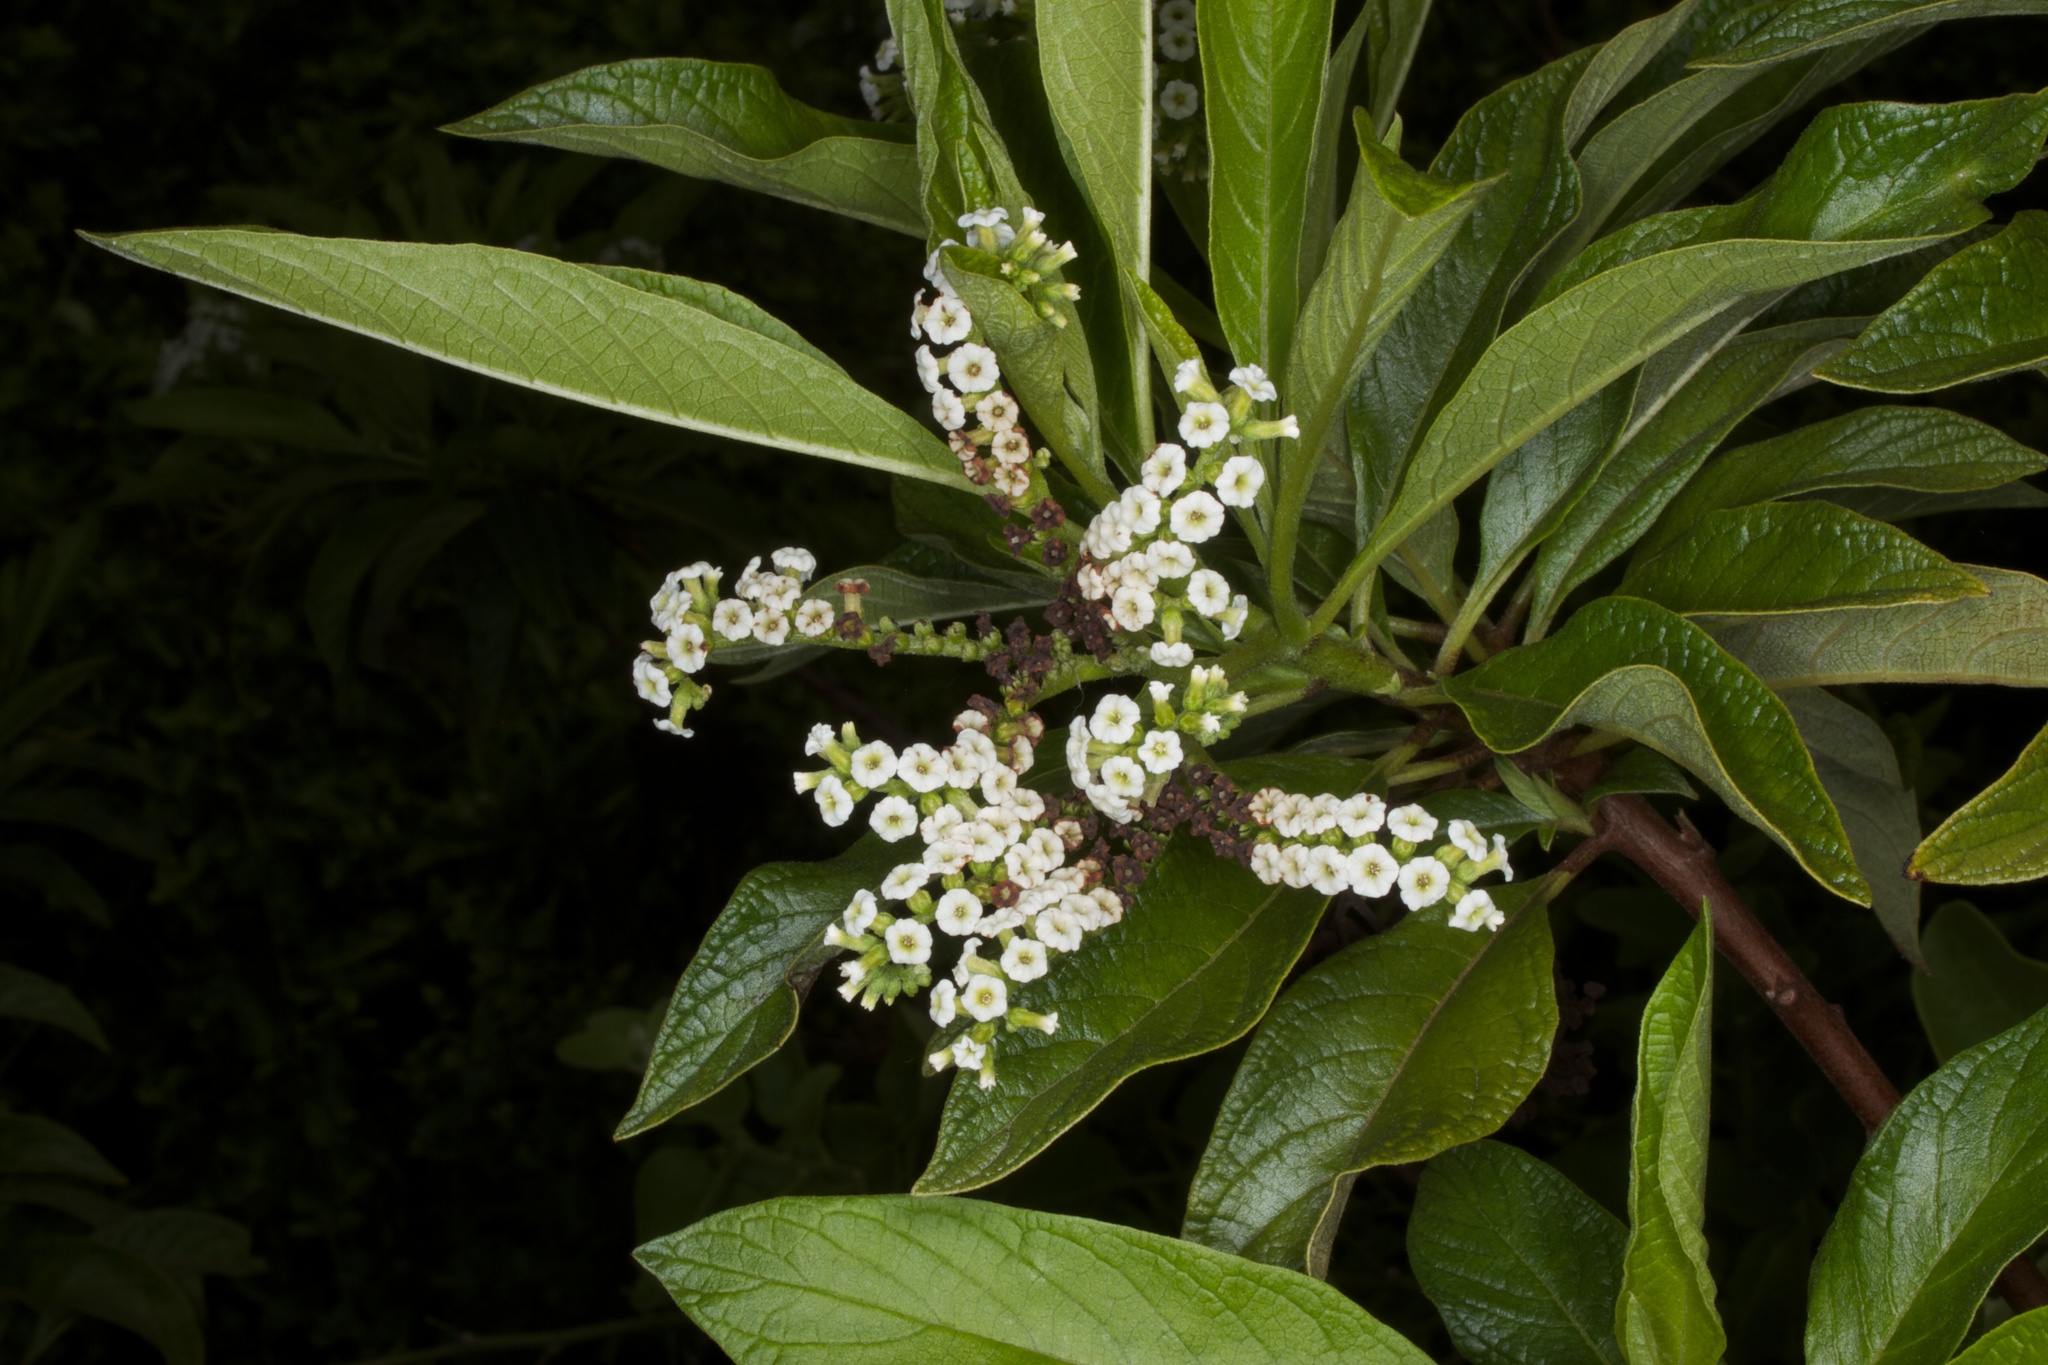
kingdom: Plantae
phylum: Tracheophyta
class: Magnoliopsida
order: Boraginales
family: Heliotropiaceae
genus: Tournefortia
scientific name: Tournefortia pubescens
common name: White-haired tournefortia
